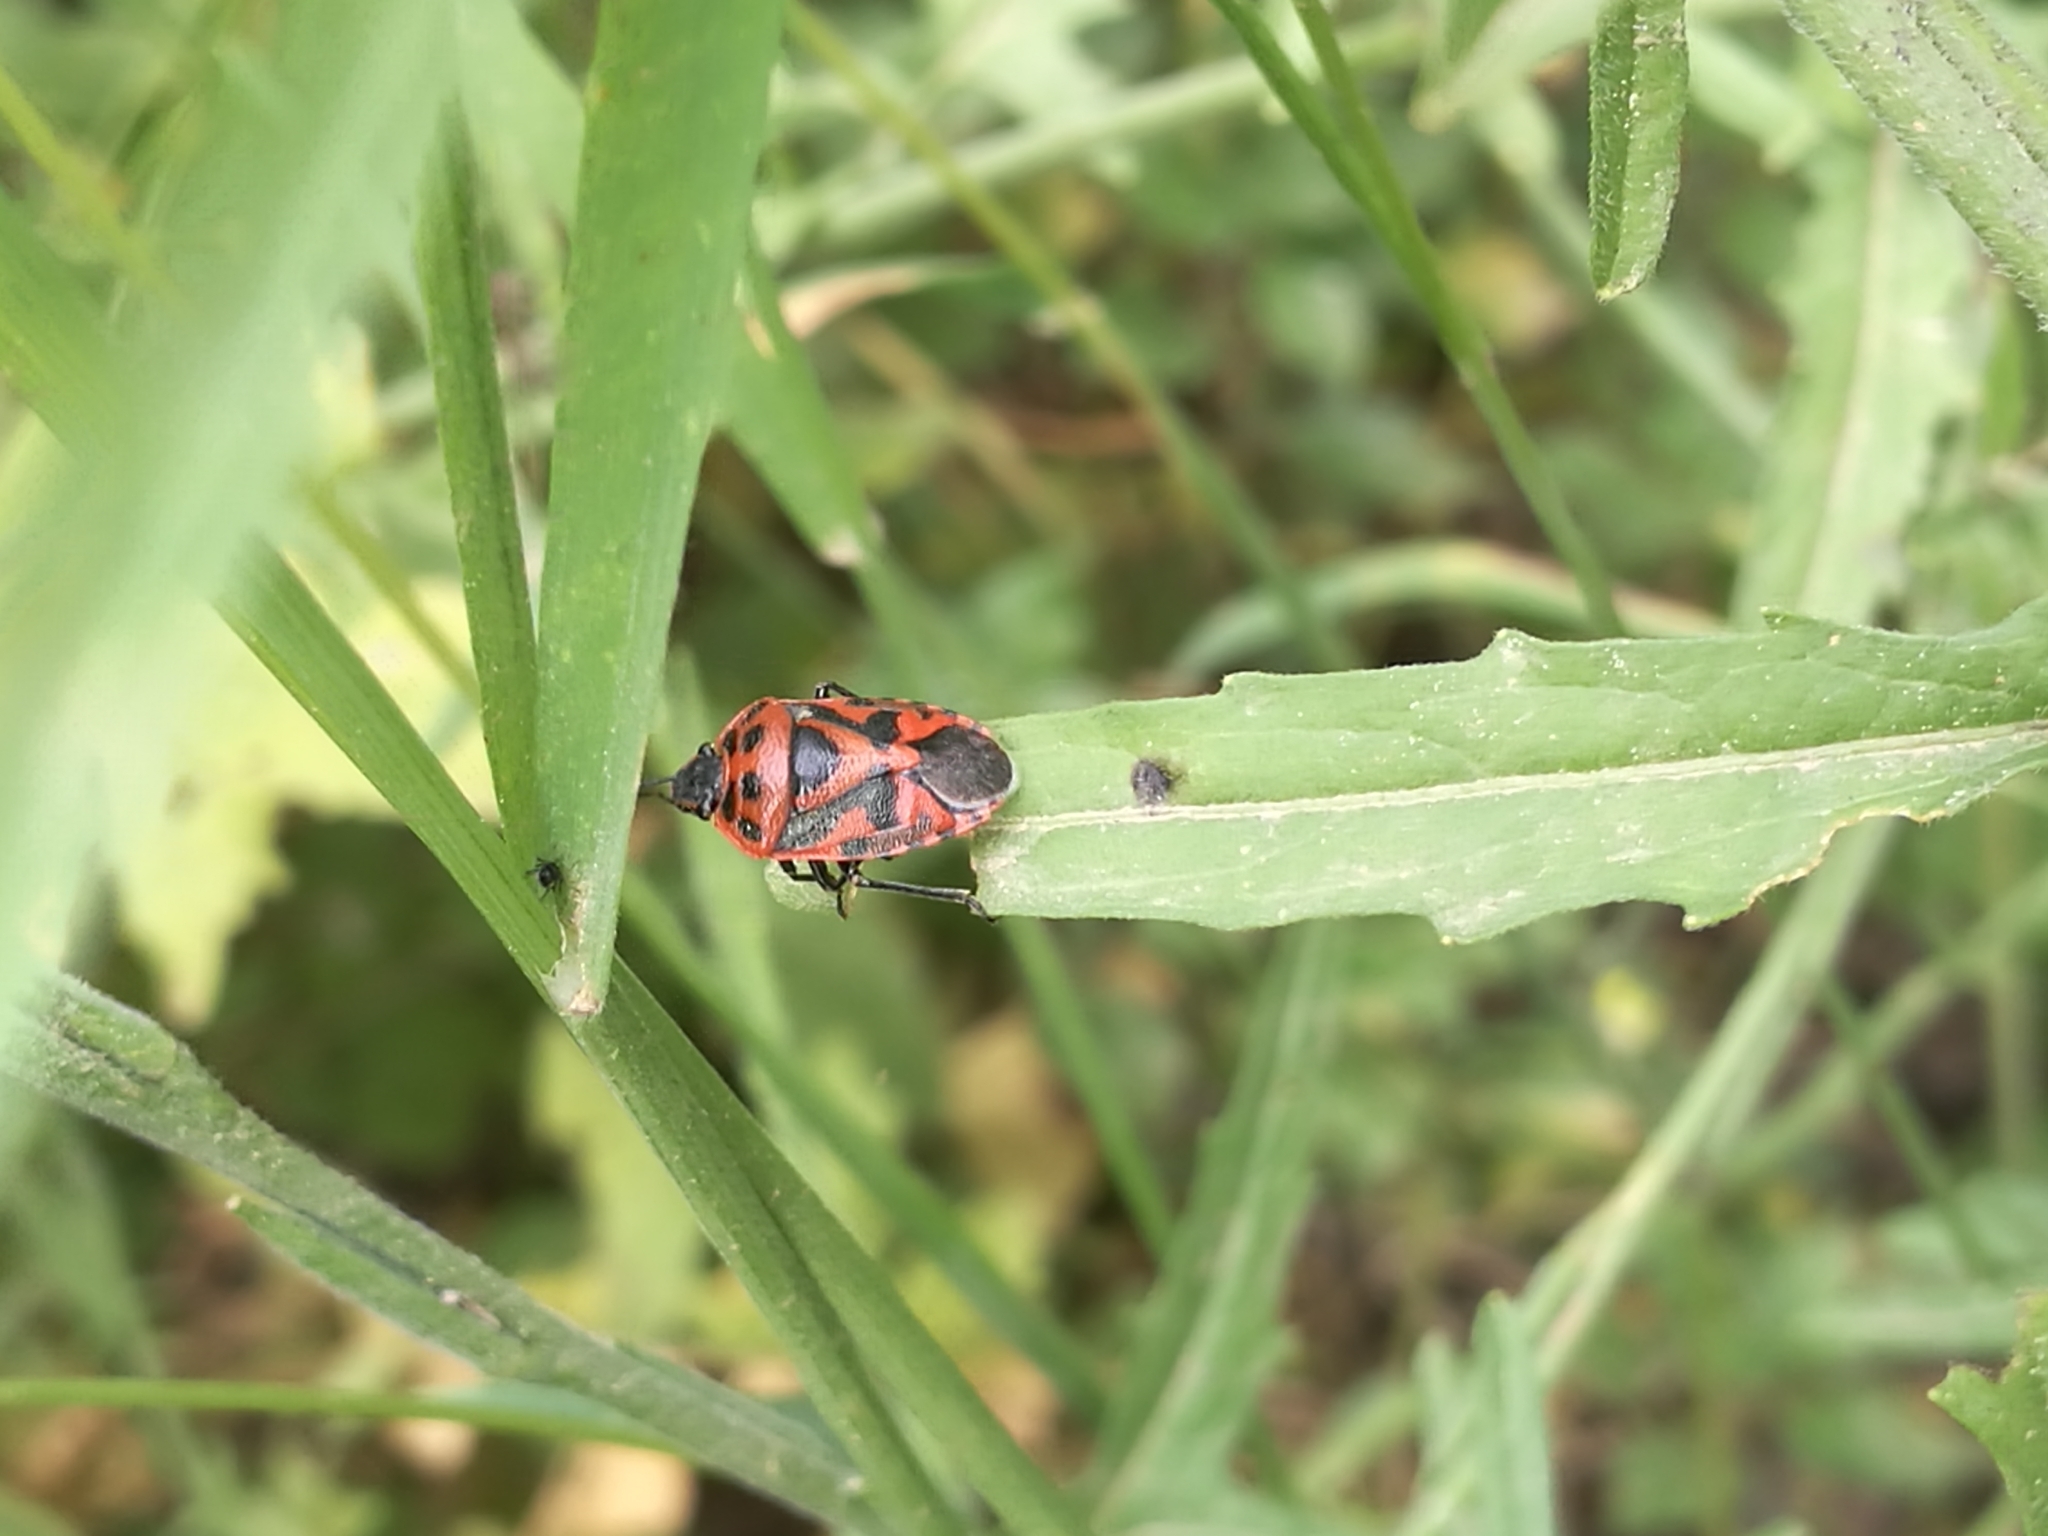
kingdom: Animalia
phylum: Arthropoda
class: Insecta
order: Hemiptera
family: Pentatomidae
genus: Eurydema
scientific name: Eurydema ornata
